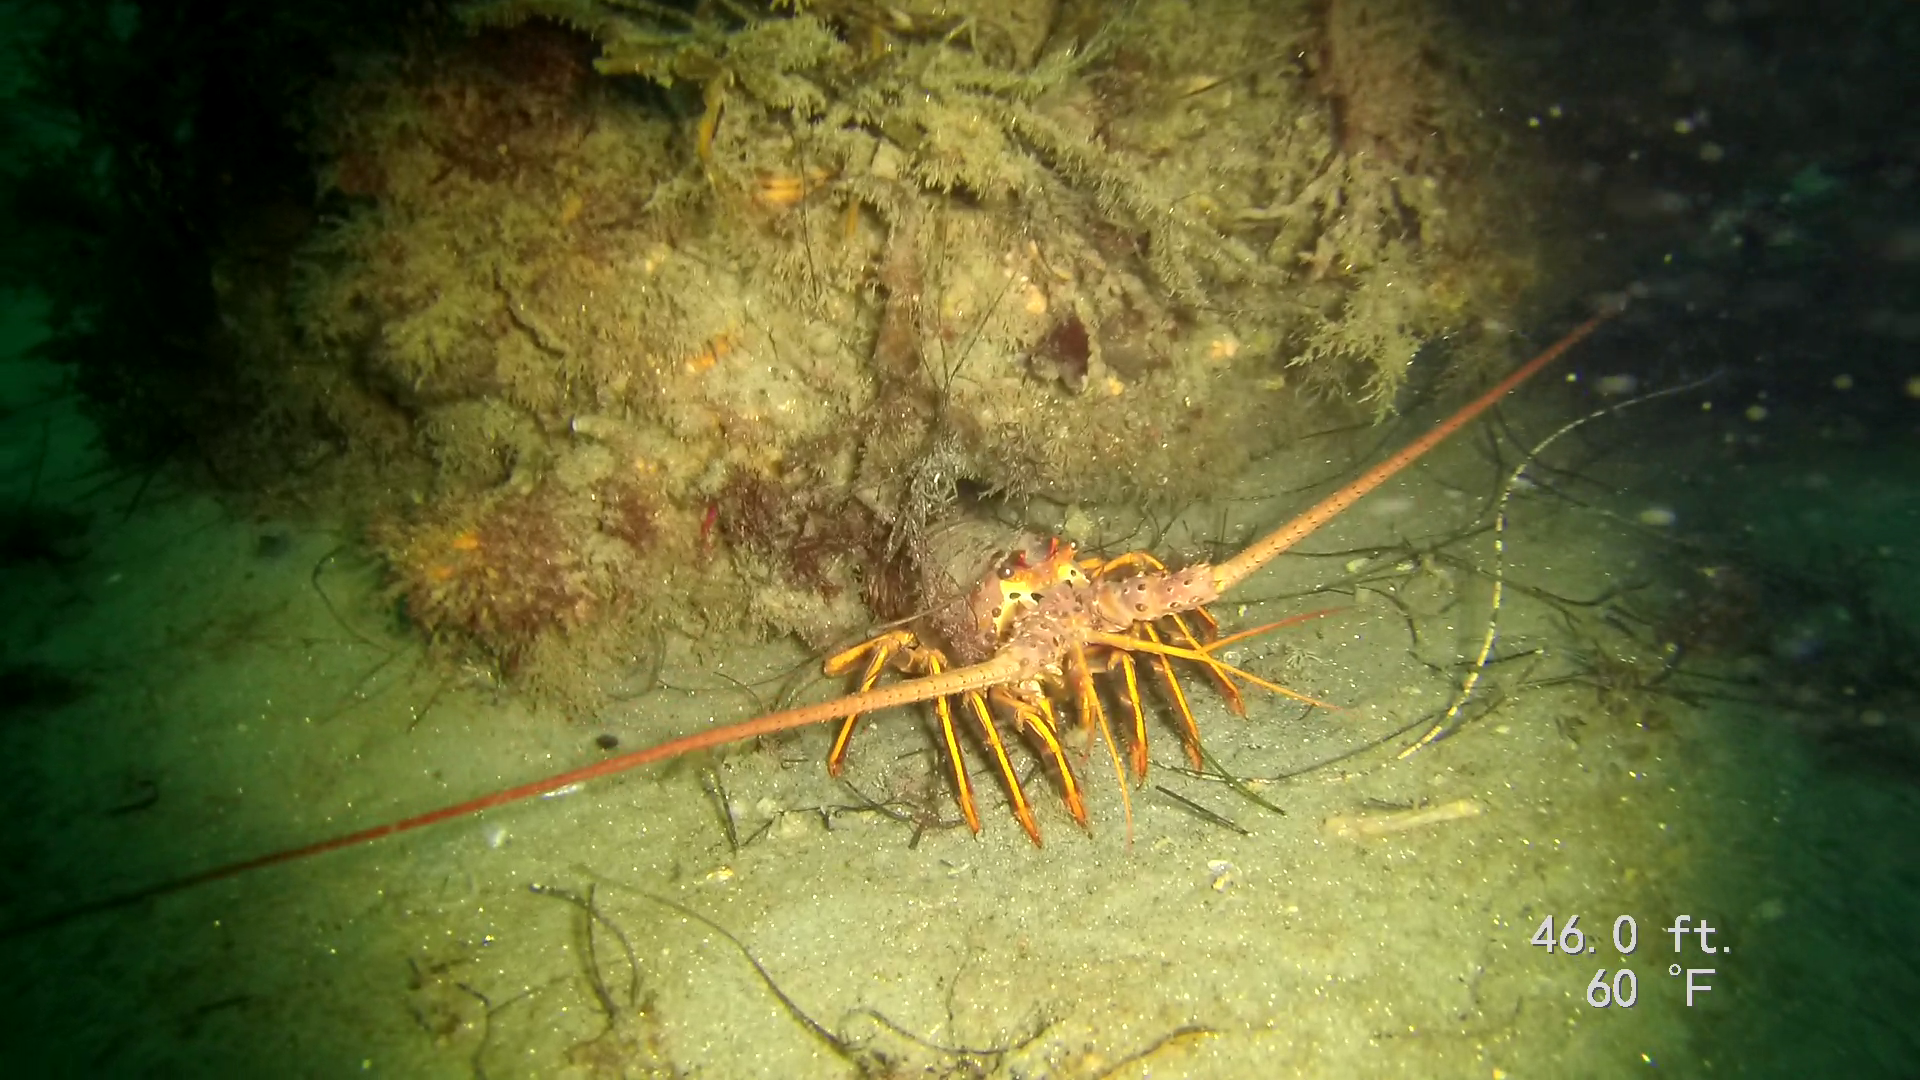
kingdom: Animalia
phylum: Arthropoda
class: Malacostraca
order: Decapoda
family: Palinuridae
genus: Panulirus
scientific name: Panulirus interruptus
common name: California spiny lobster
